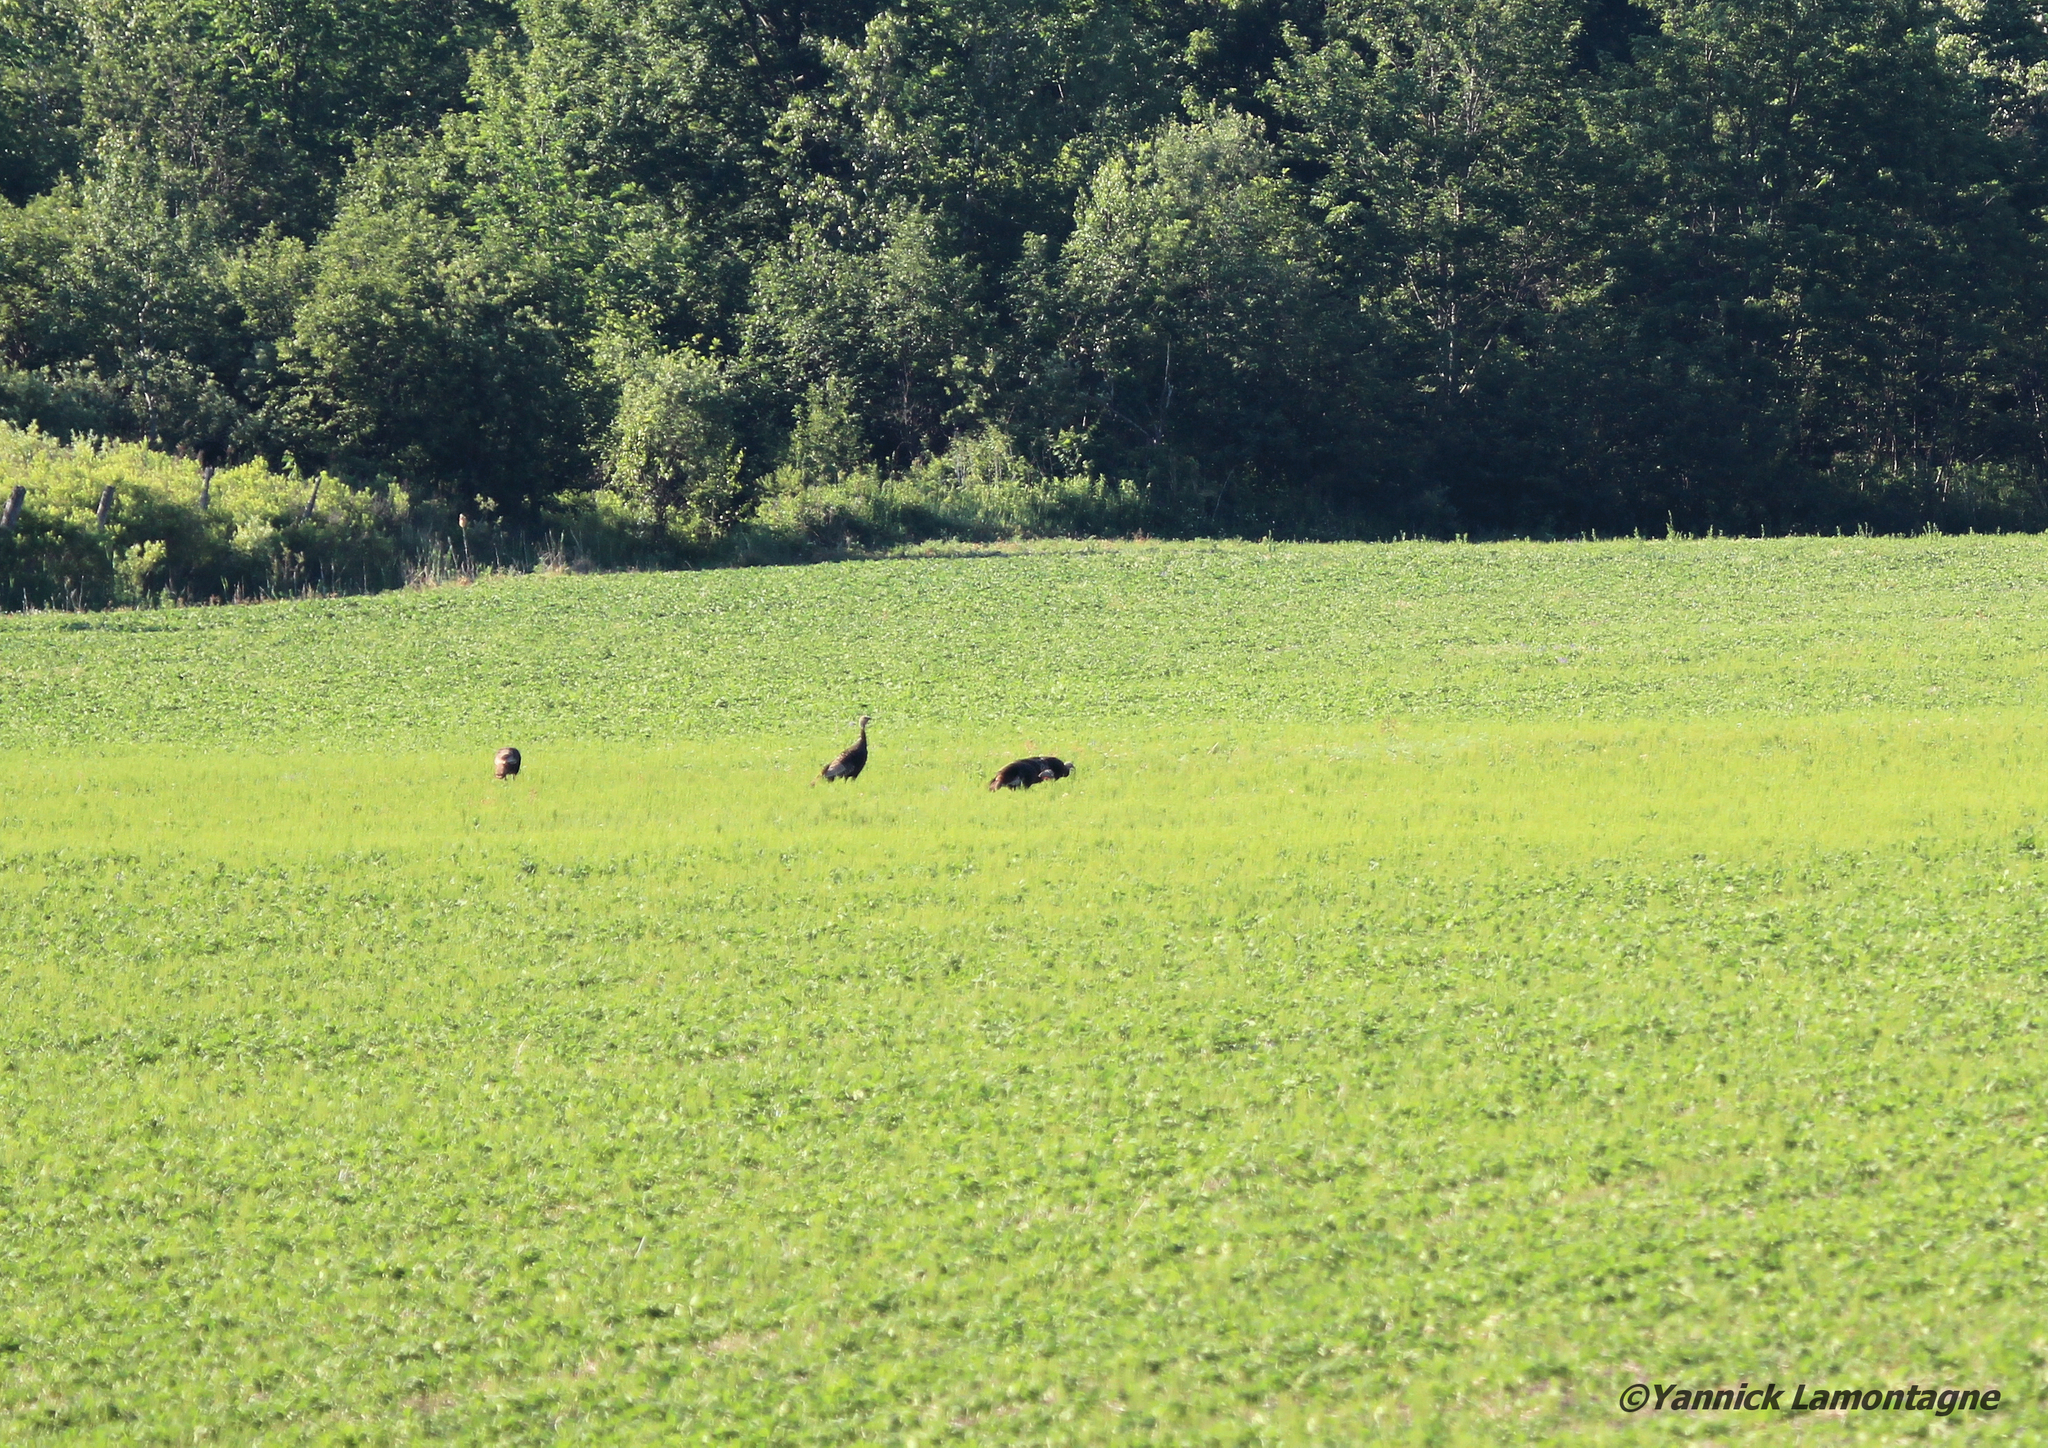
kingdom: Animalia
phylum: Chordata
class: Aves
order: Galliformes
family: Phasianidae
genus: Meleagris
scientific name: Meleagris gallopavo
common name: Wild turkey
